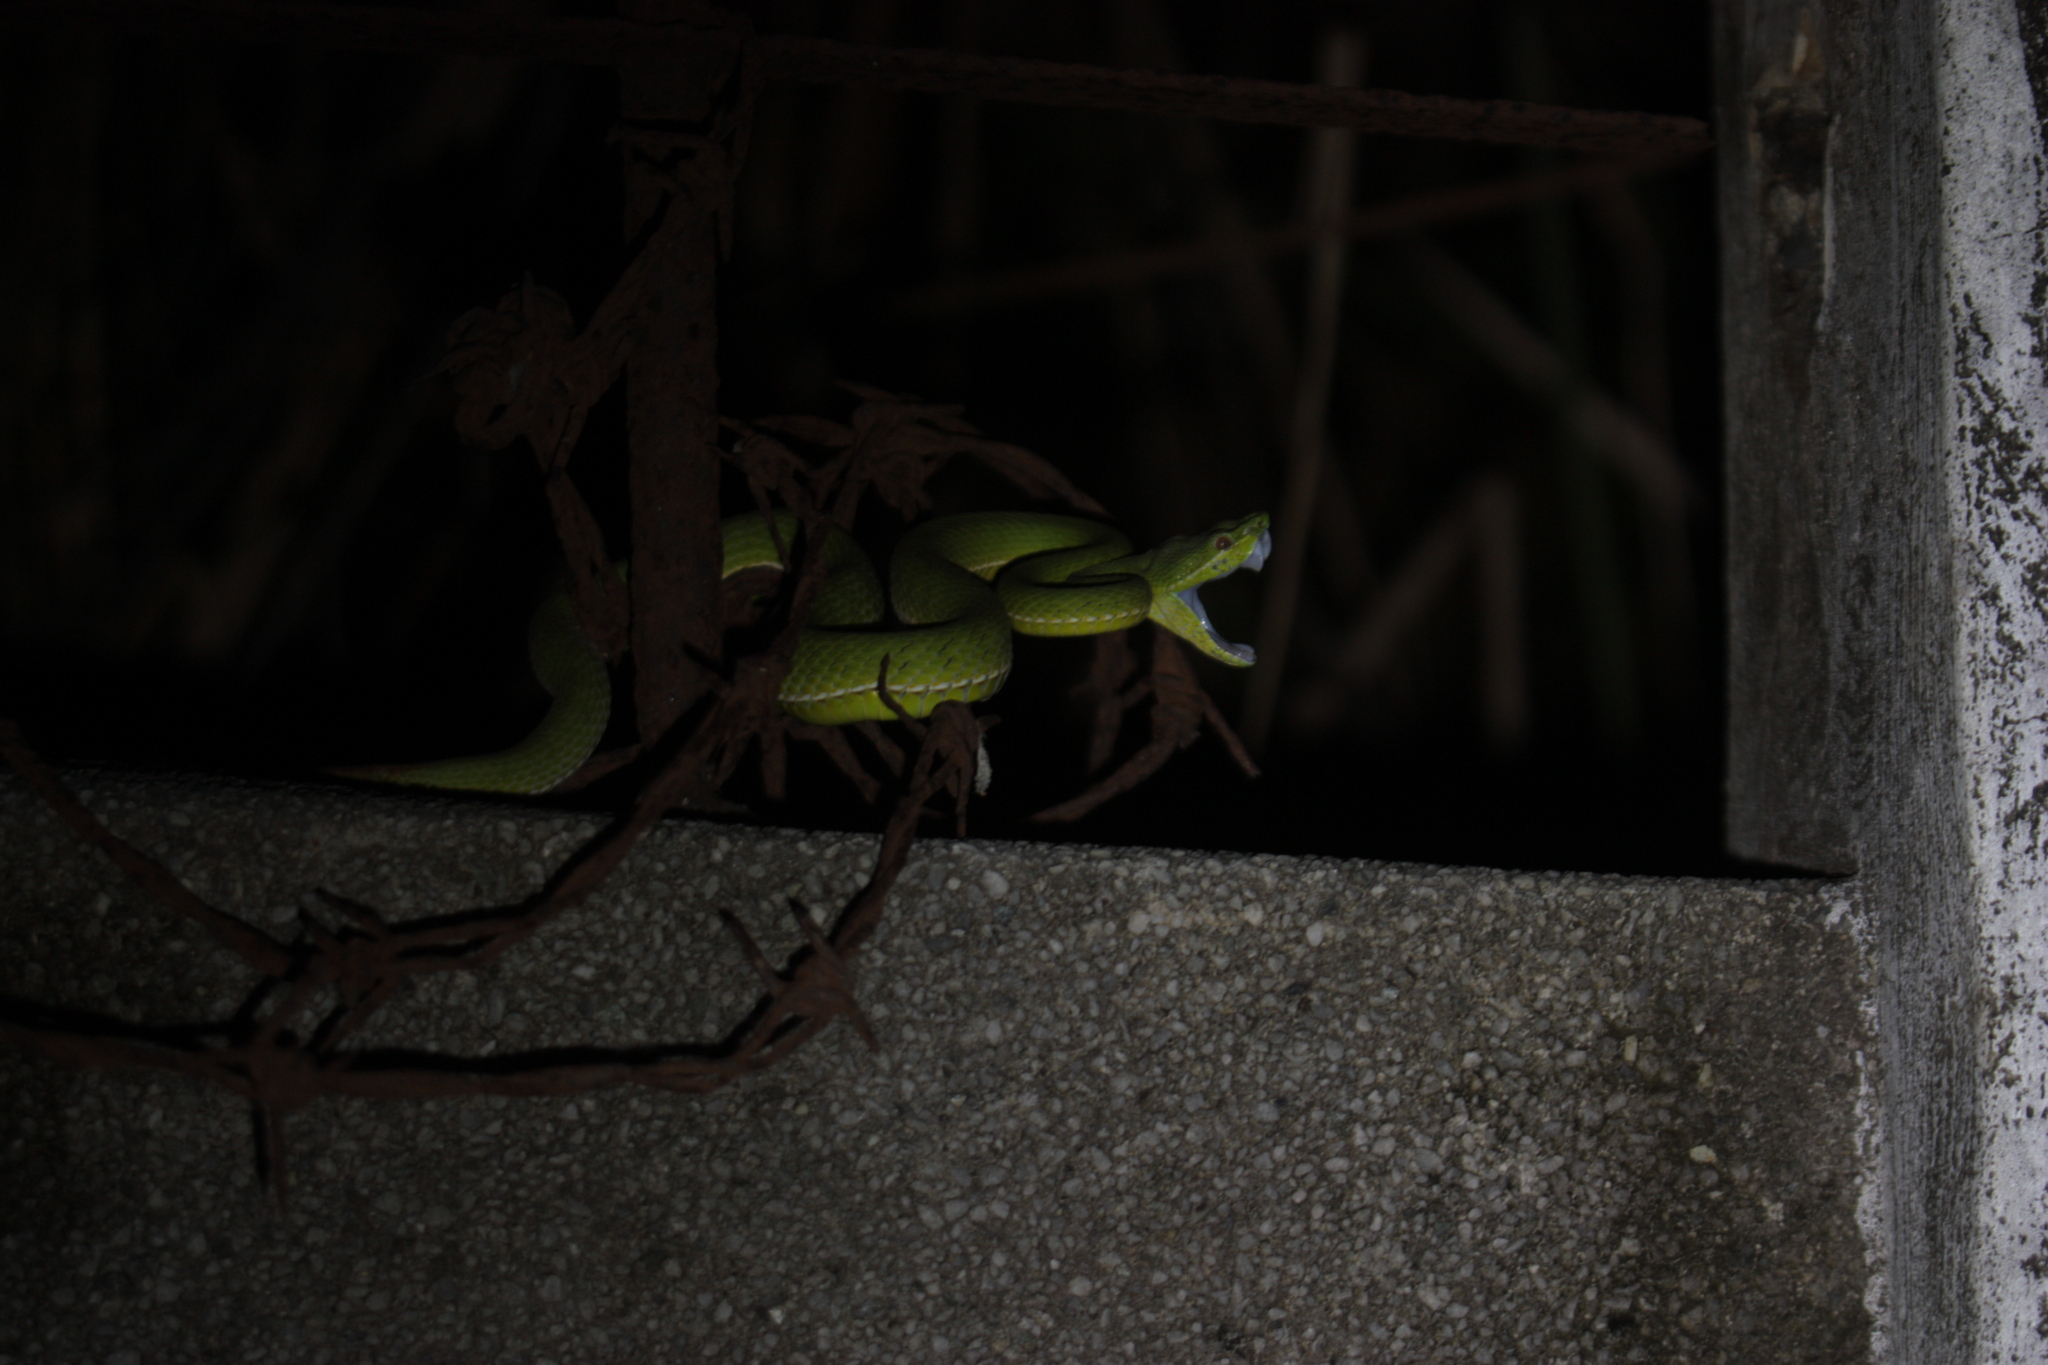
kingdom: Animalia
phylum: Chordata
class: Squamata
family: Viperidae
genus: Trimeresurus
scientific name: Trimeresurus stejnegeri
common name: Chen’s bamboo pit viper
